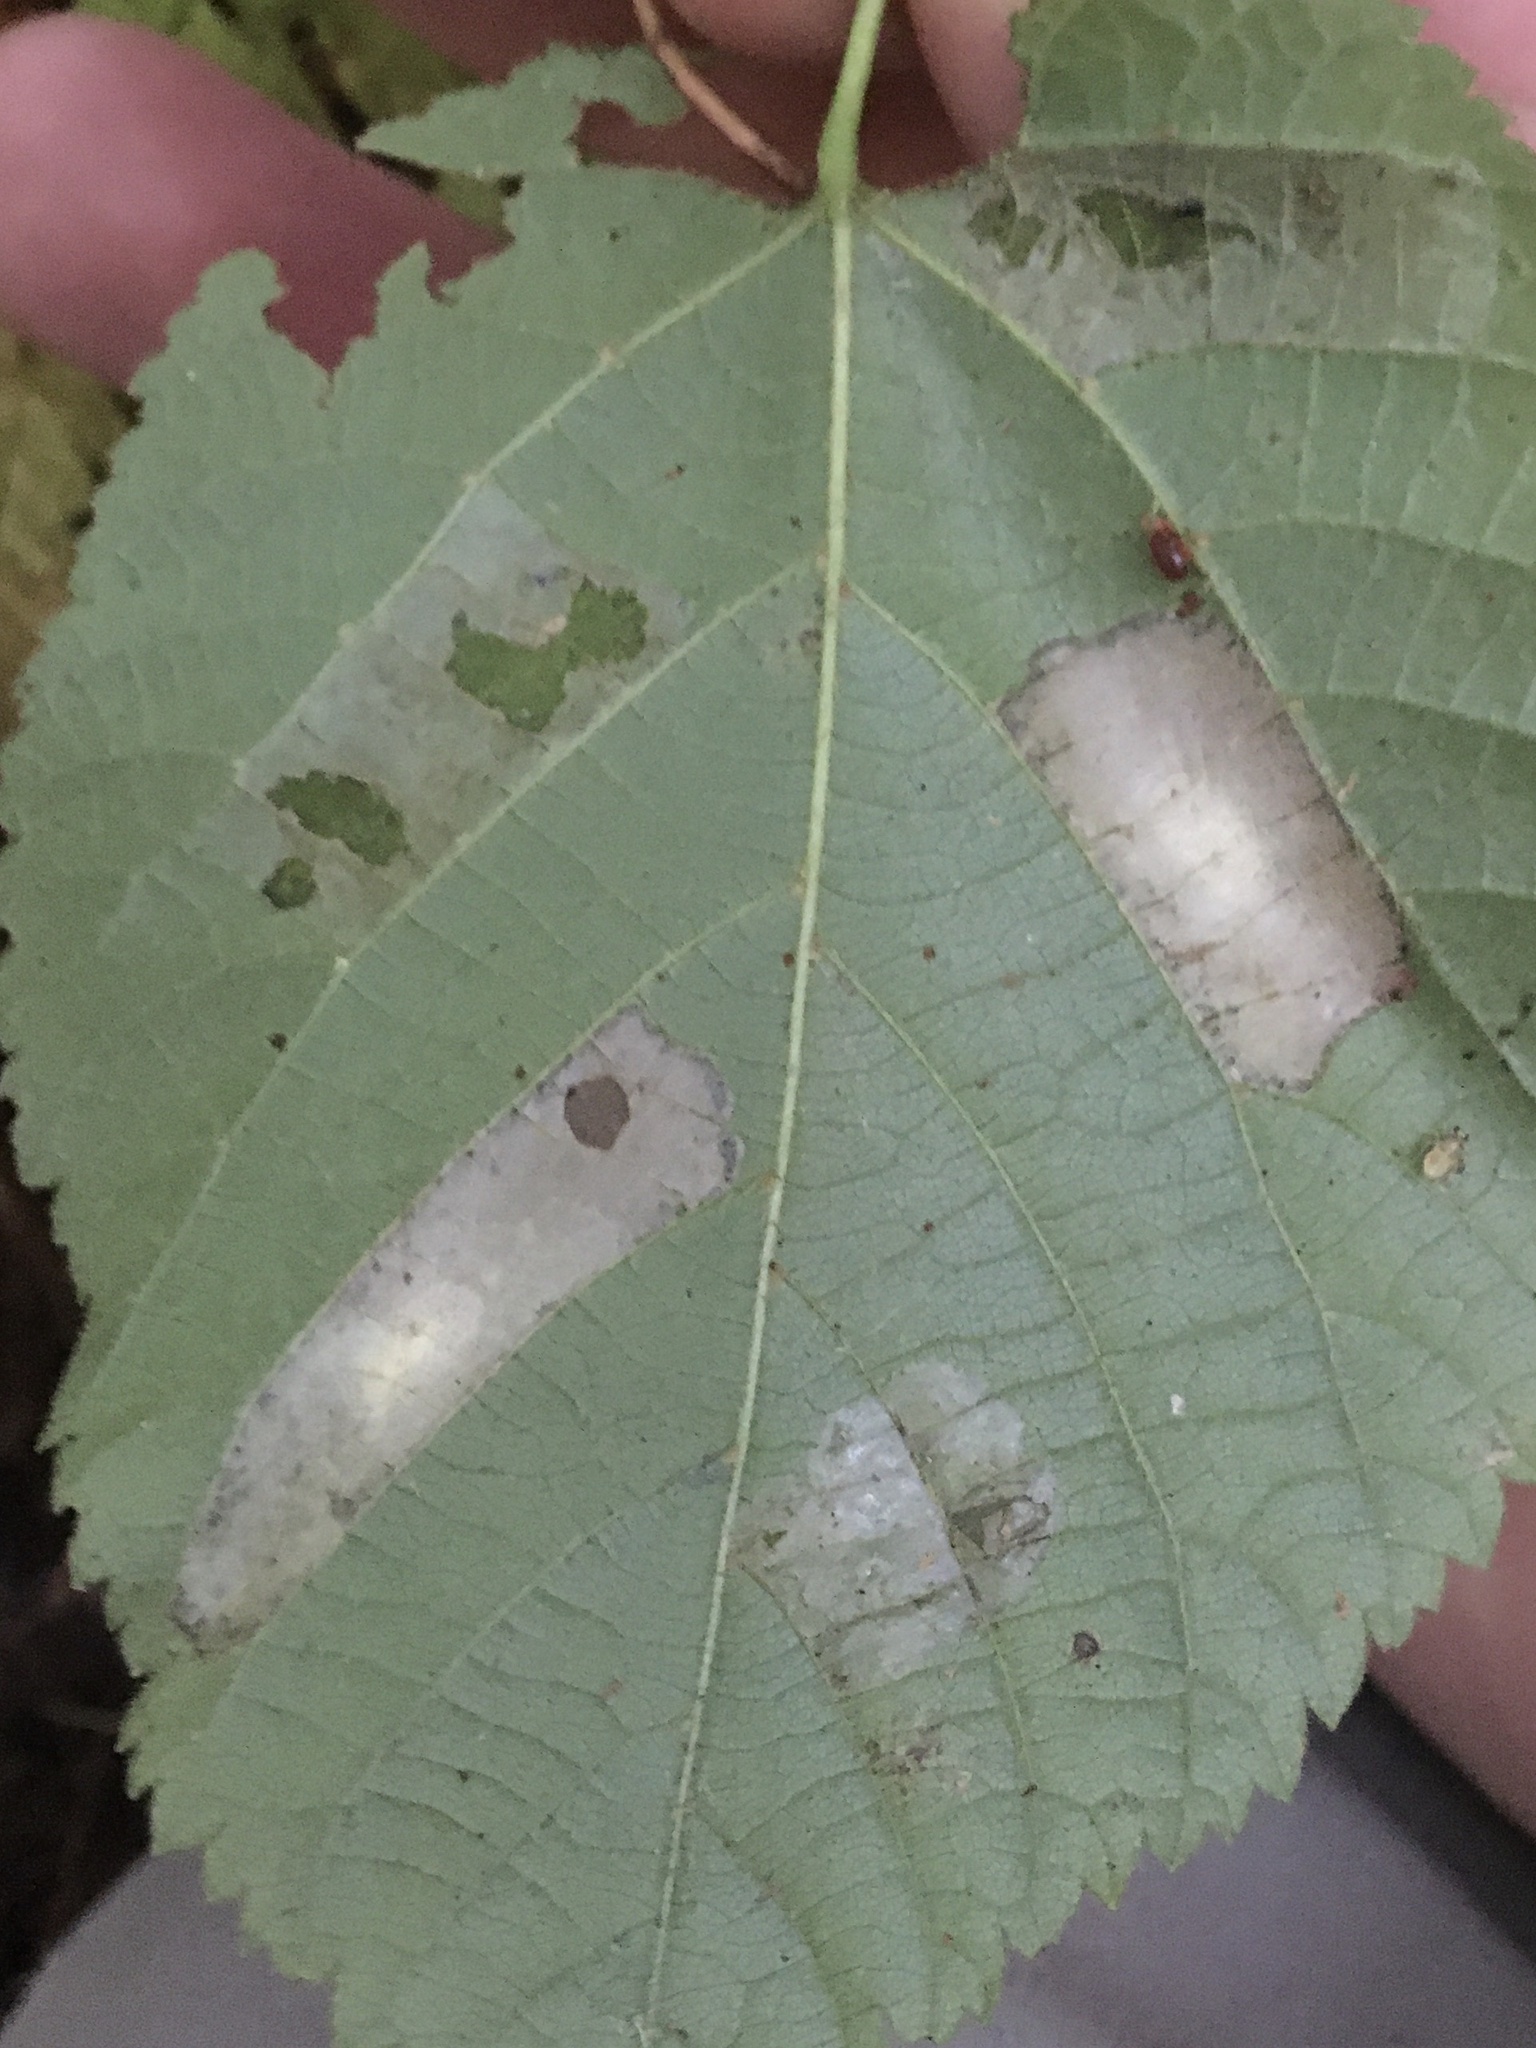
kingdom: Animalia
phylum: Arthropoda
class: Insecta
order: Lepidoptera
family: Gracillariidae
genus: Phyllonorycter
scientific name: Phyllonorycter lucetiella
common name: Basswood miner moth
